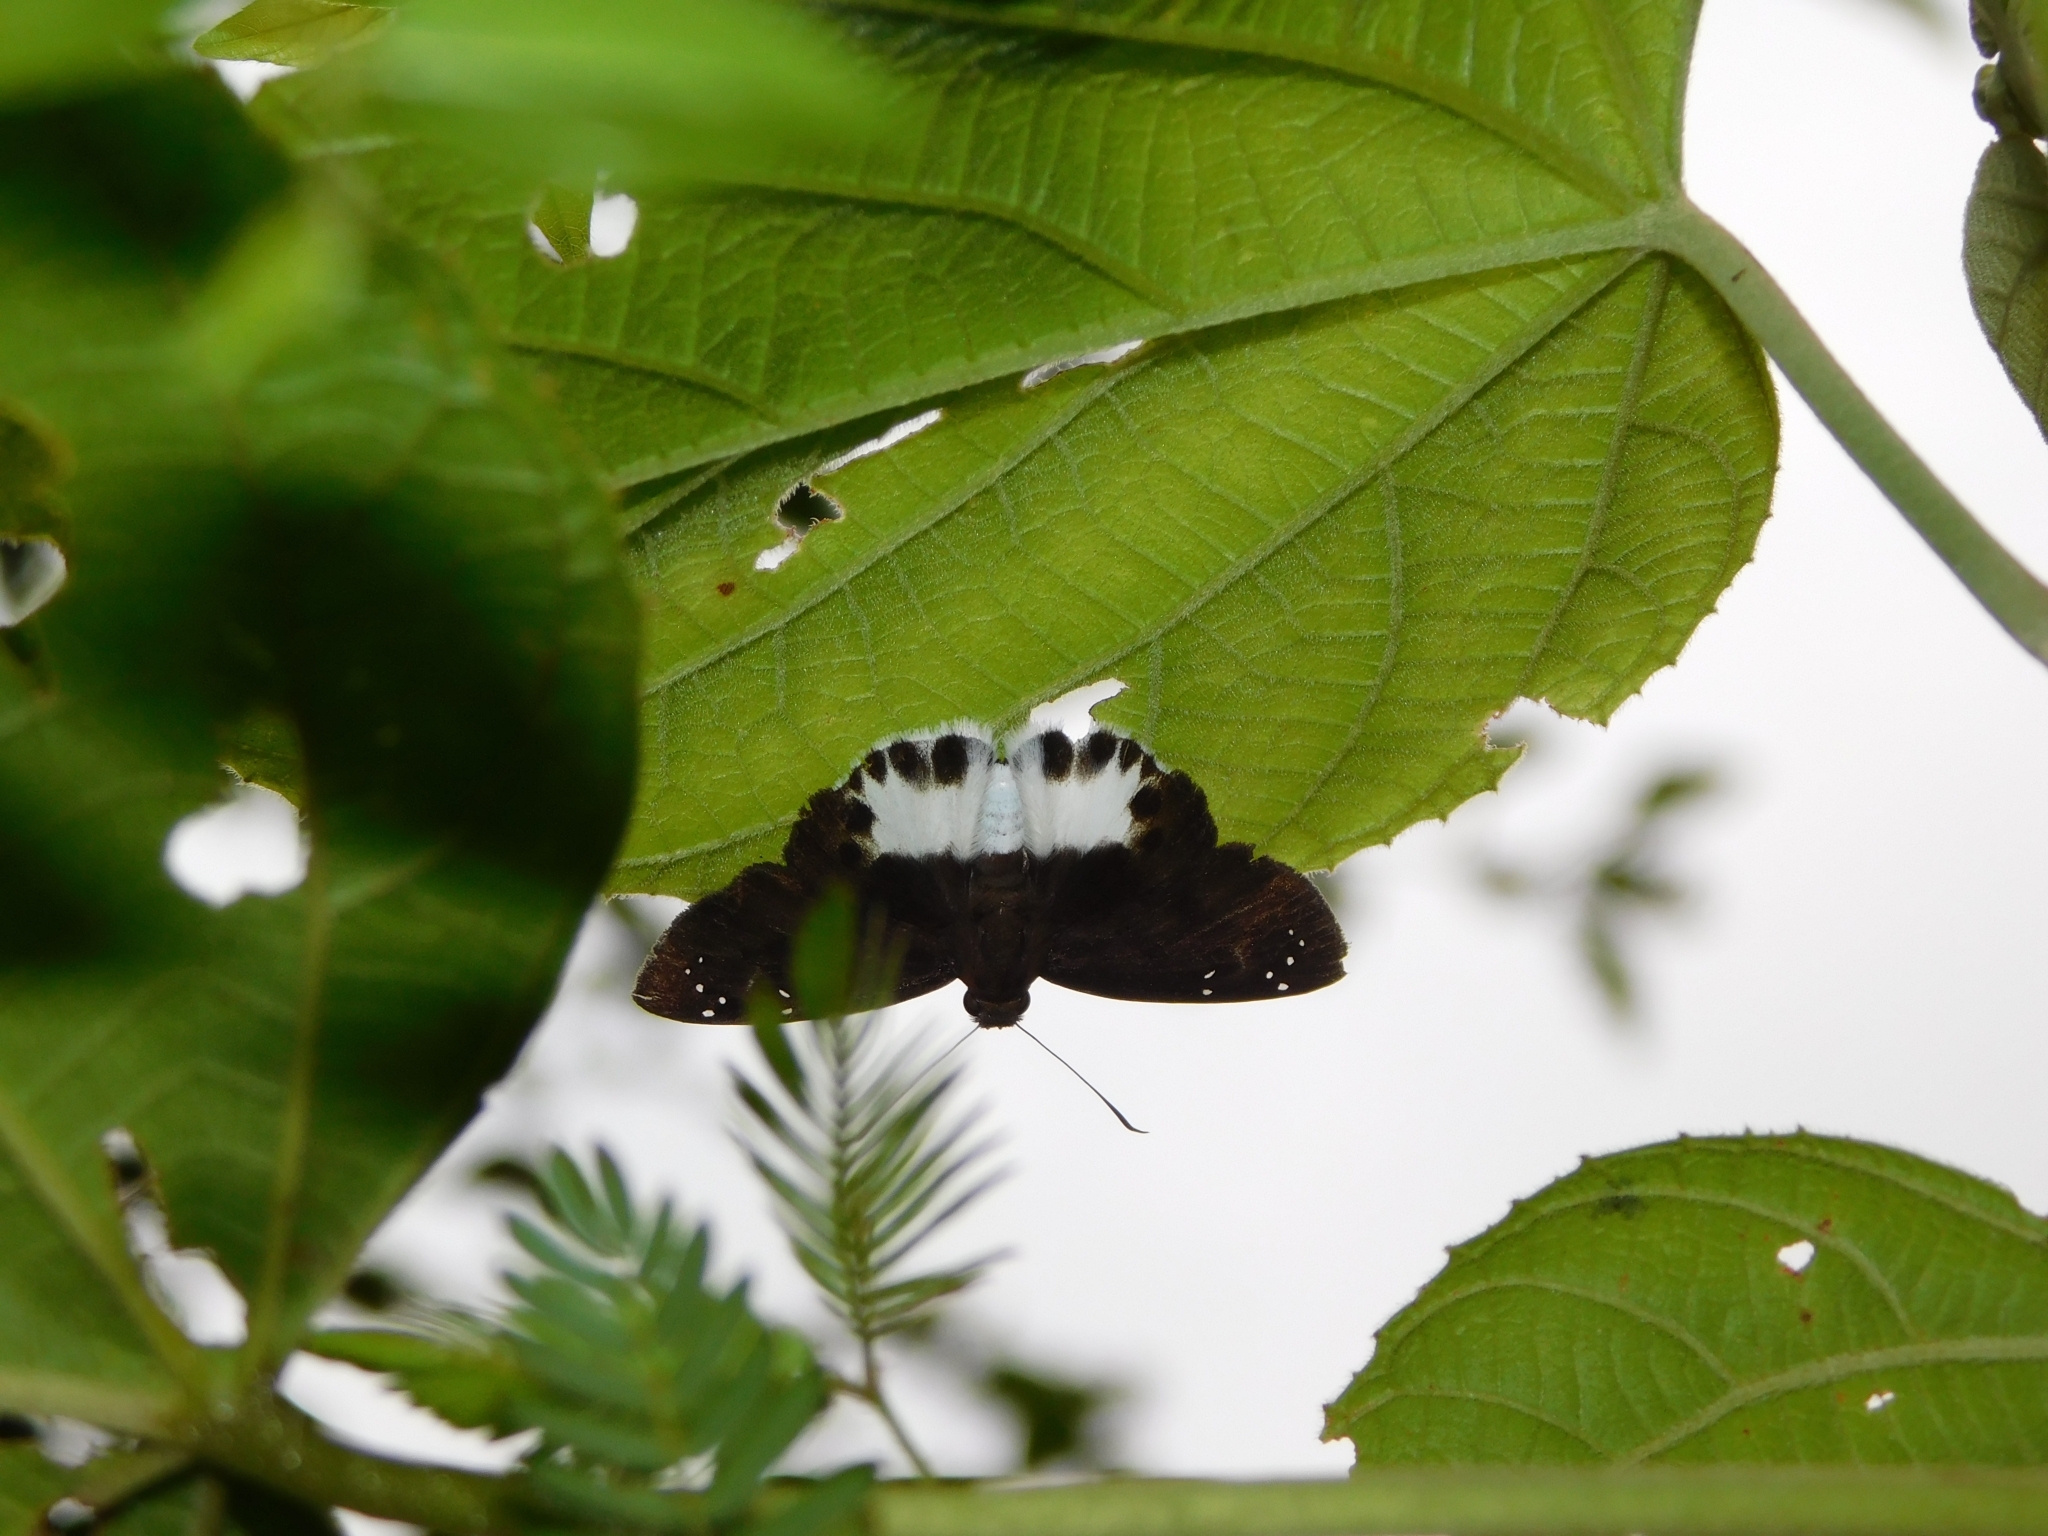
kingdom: Animalia
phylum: Arthropoda
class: Insecta
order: Lepidoptera
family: Hesperiidae
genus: Tagiades
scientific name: Tagiades litigiosa
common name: Water snow flat
